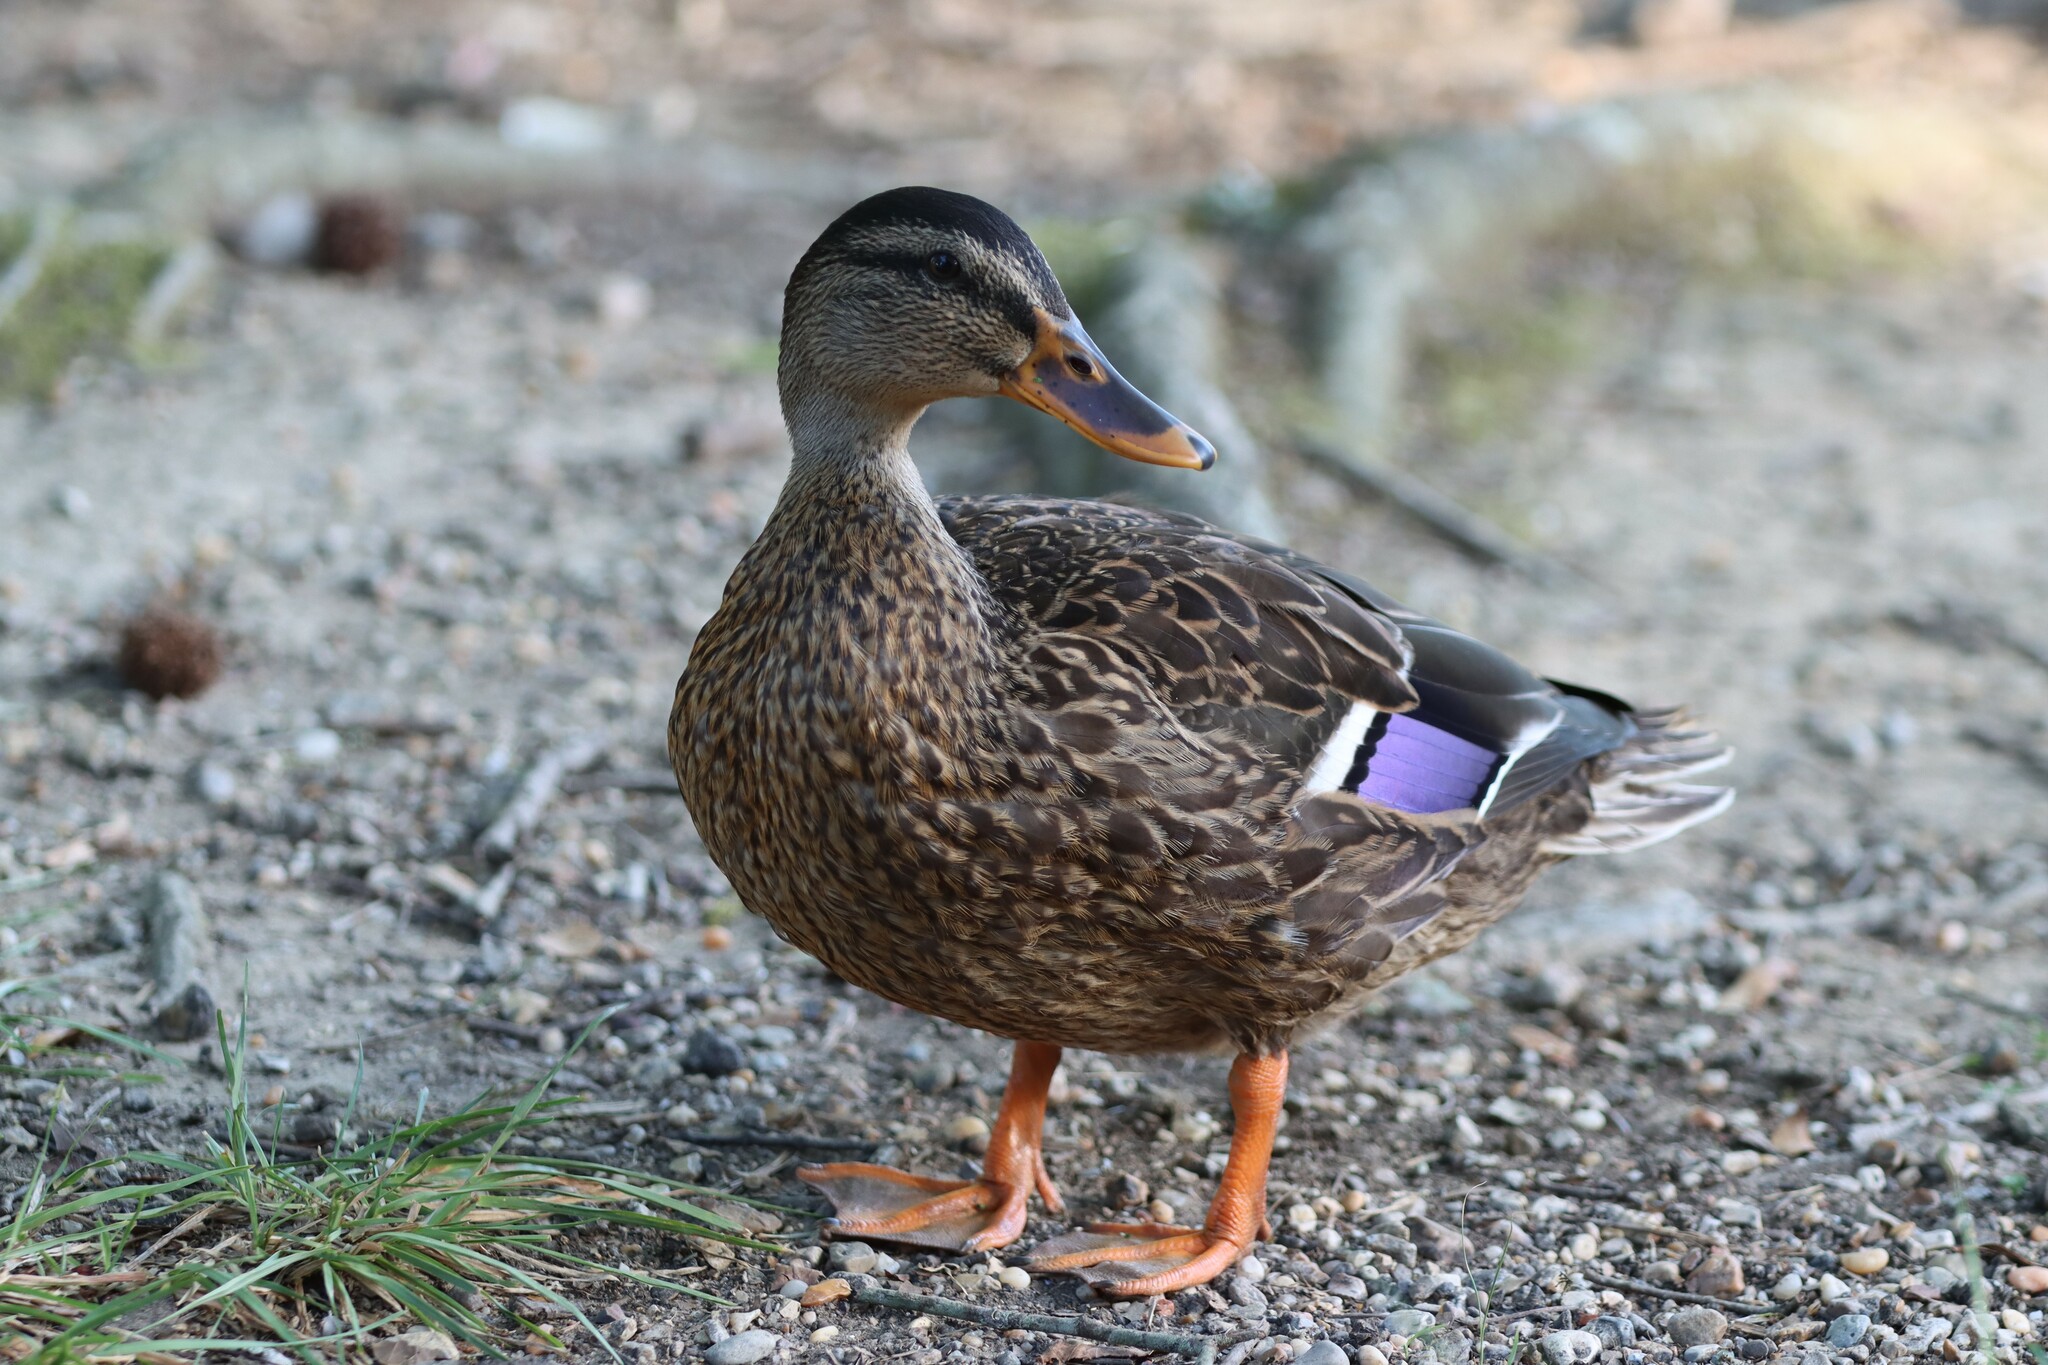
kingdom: Animalia
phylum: Chordata
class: Aves
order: Anseriformes
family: Anatidae
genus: Anas
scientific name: Anas platyrhynchos
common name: Mallard
